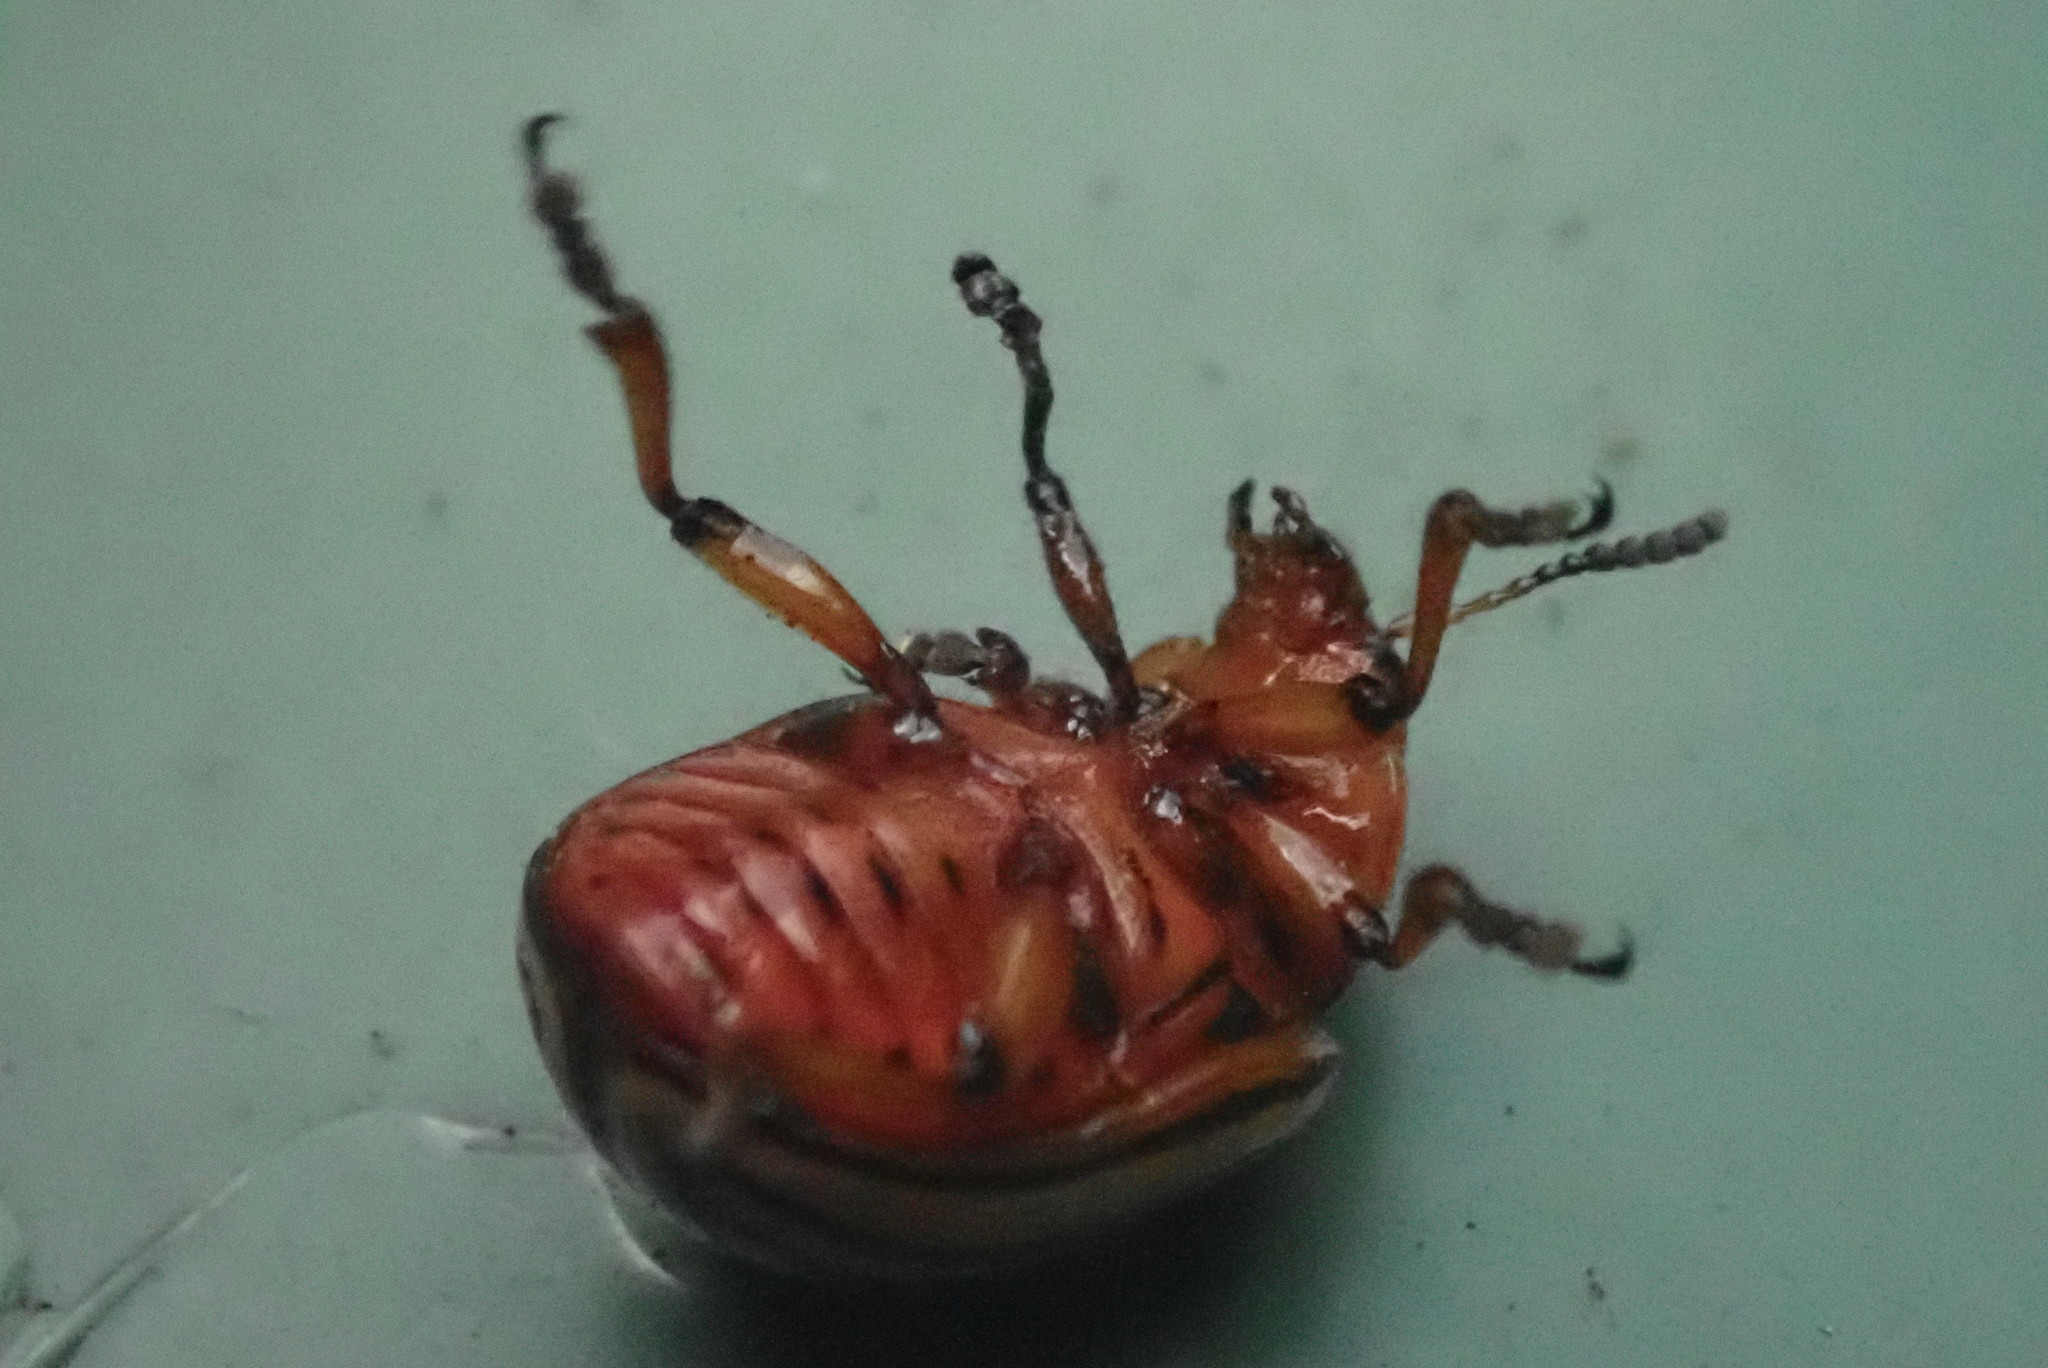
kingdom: Animalia
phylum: Arthropoda
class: Insecta
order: Coleoptera
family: Chrysomelidae
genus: Leptinotarsa
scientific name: Leptinotarsa decemlineata
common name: Colorado potato beetle
